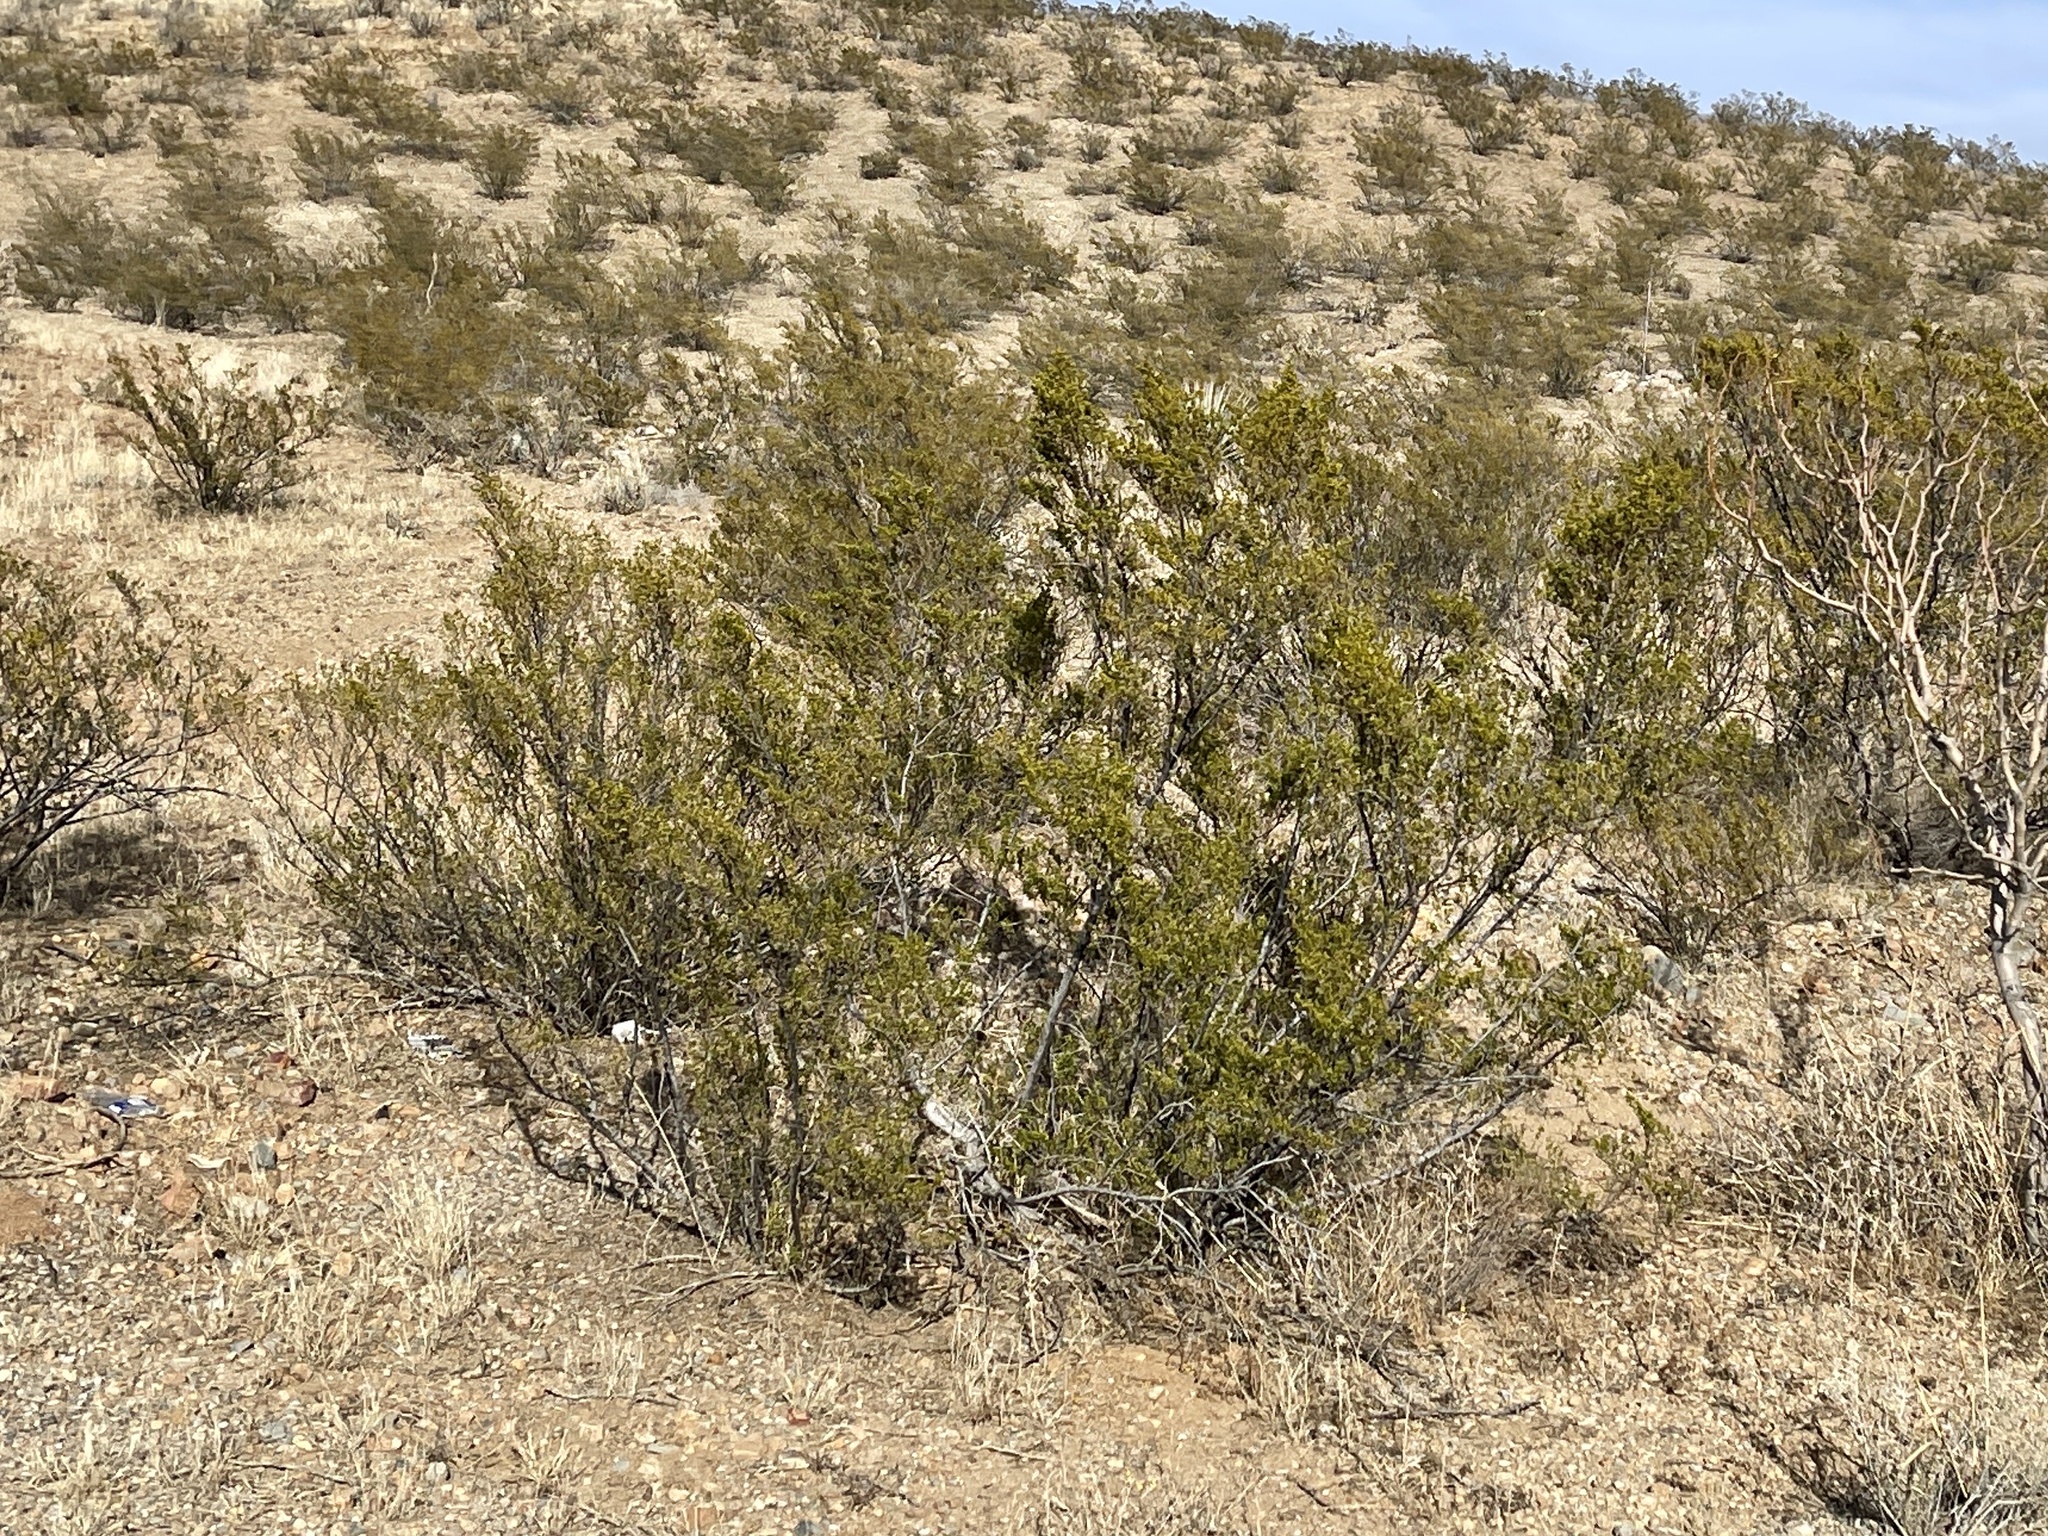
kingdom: Plantae
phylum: Tracheophyta
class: Magnoliopsida
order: Zygophyllales
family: Zygophyllaceae
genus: Larrea
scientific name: Larrea tridentata
